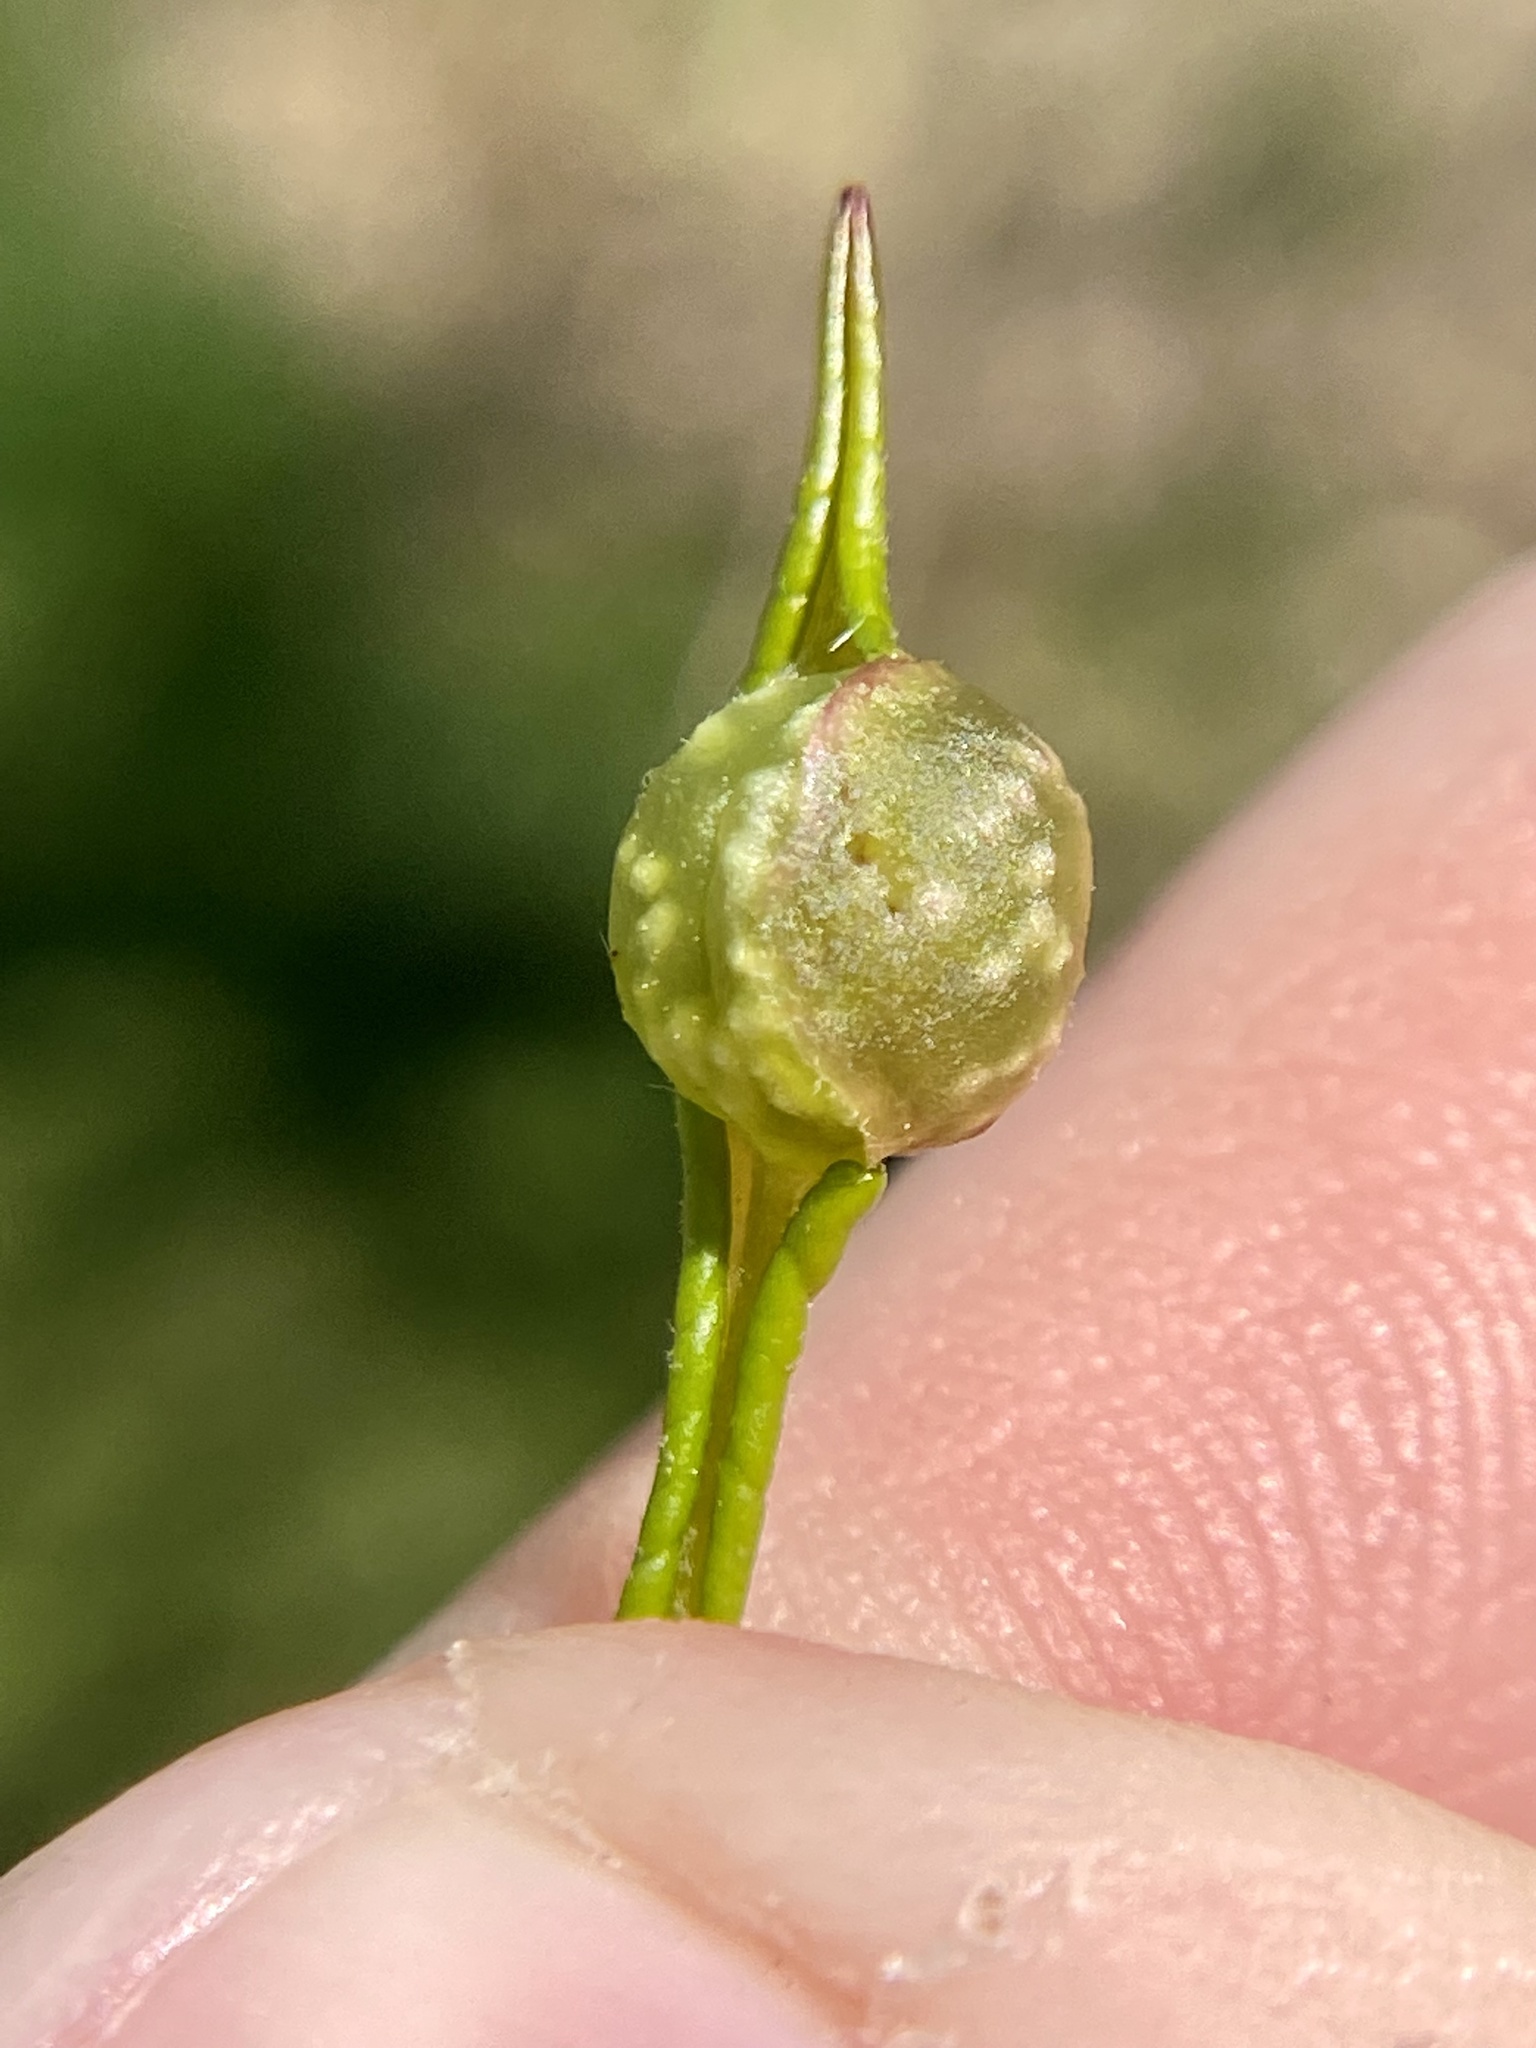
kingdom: Animalia
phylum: Arthropoda
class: Insecta
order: Hymenoptera
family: Cynipidae
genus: Dryocosmus
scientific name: Dryocosmus
